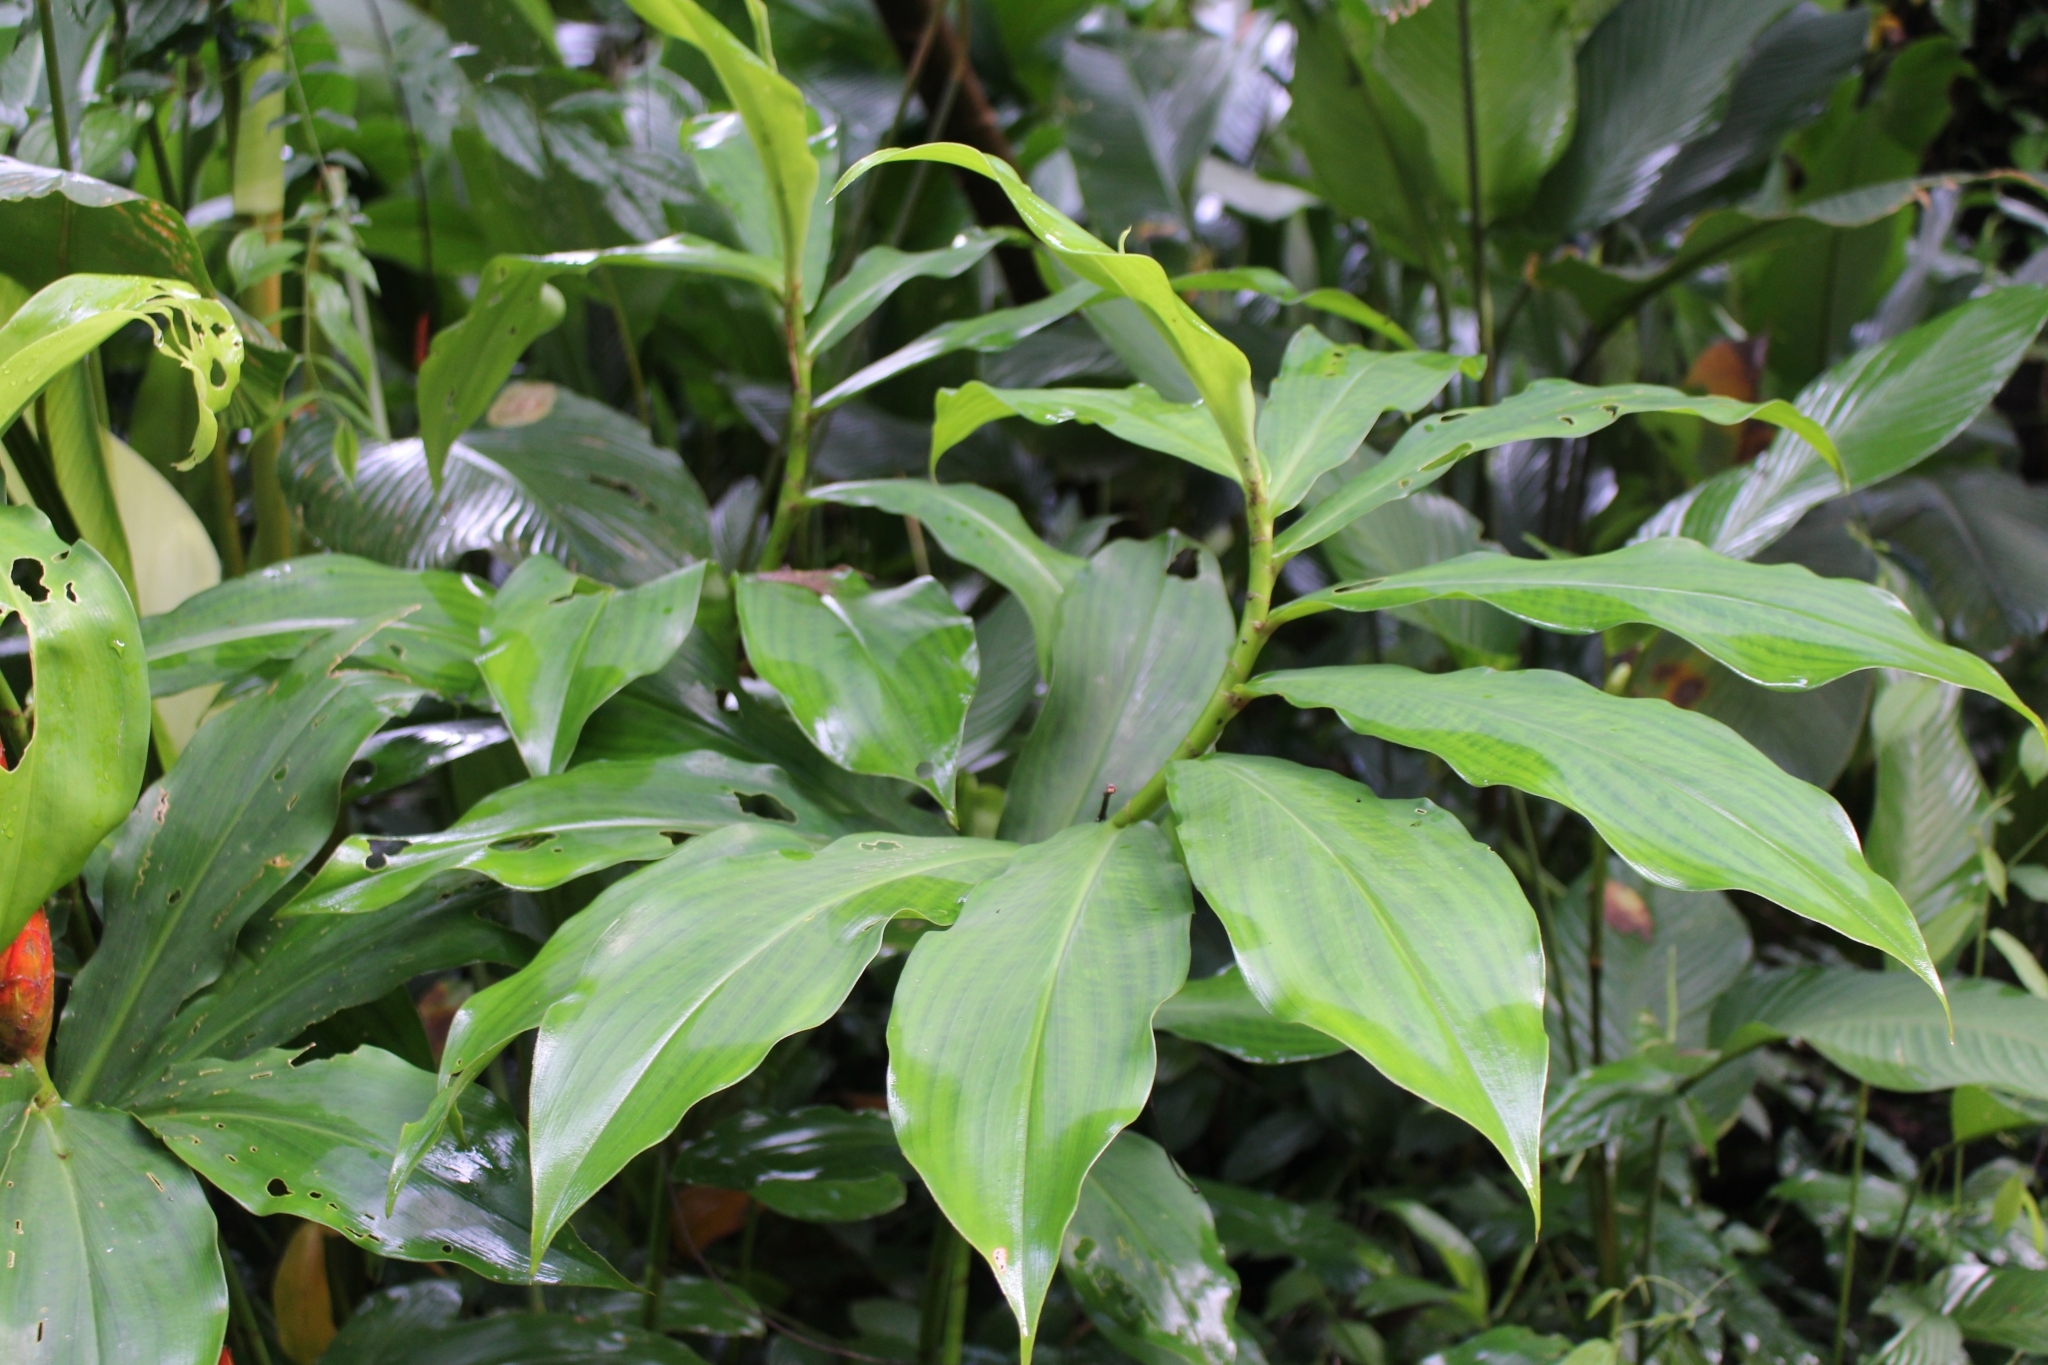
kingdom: Plantae
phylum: Tracheophyta
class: Liliopsida
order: Zingiberales
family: Costaceae
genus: Costus
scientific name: Costus pulverulentus
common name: Spiral ginger
